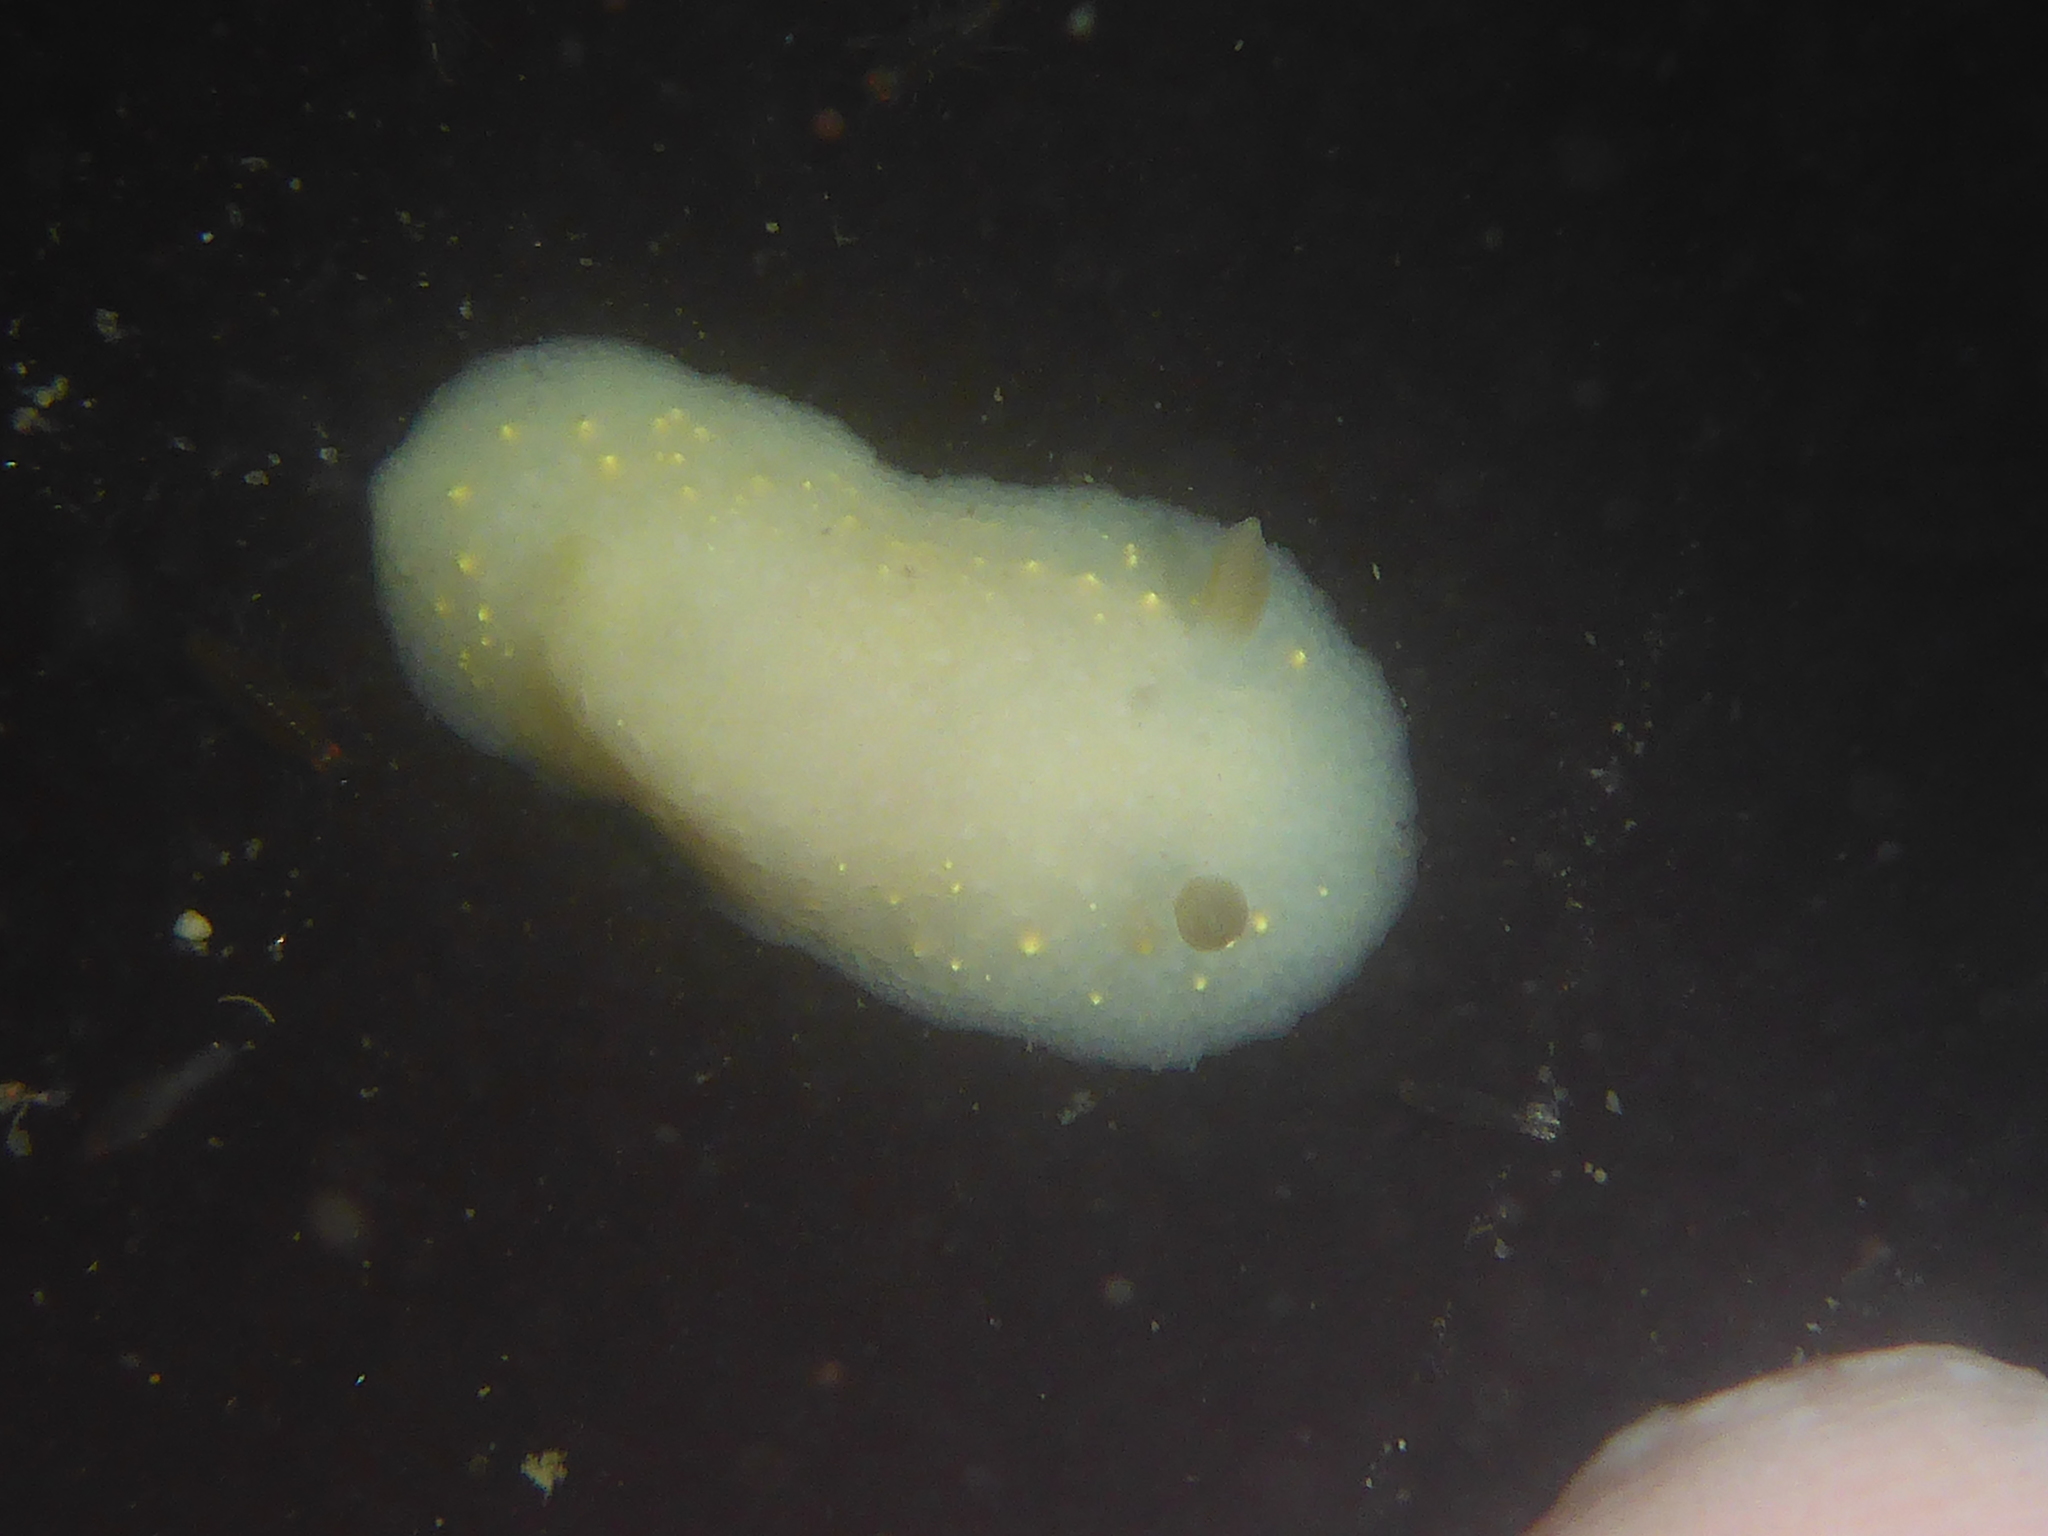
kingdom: Animalia
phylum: Mollusca
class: Gastropoda
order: Nudibranchia
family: Cadlinidae
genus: Cadlina
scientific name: Cadlina modesta
